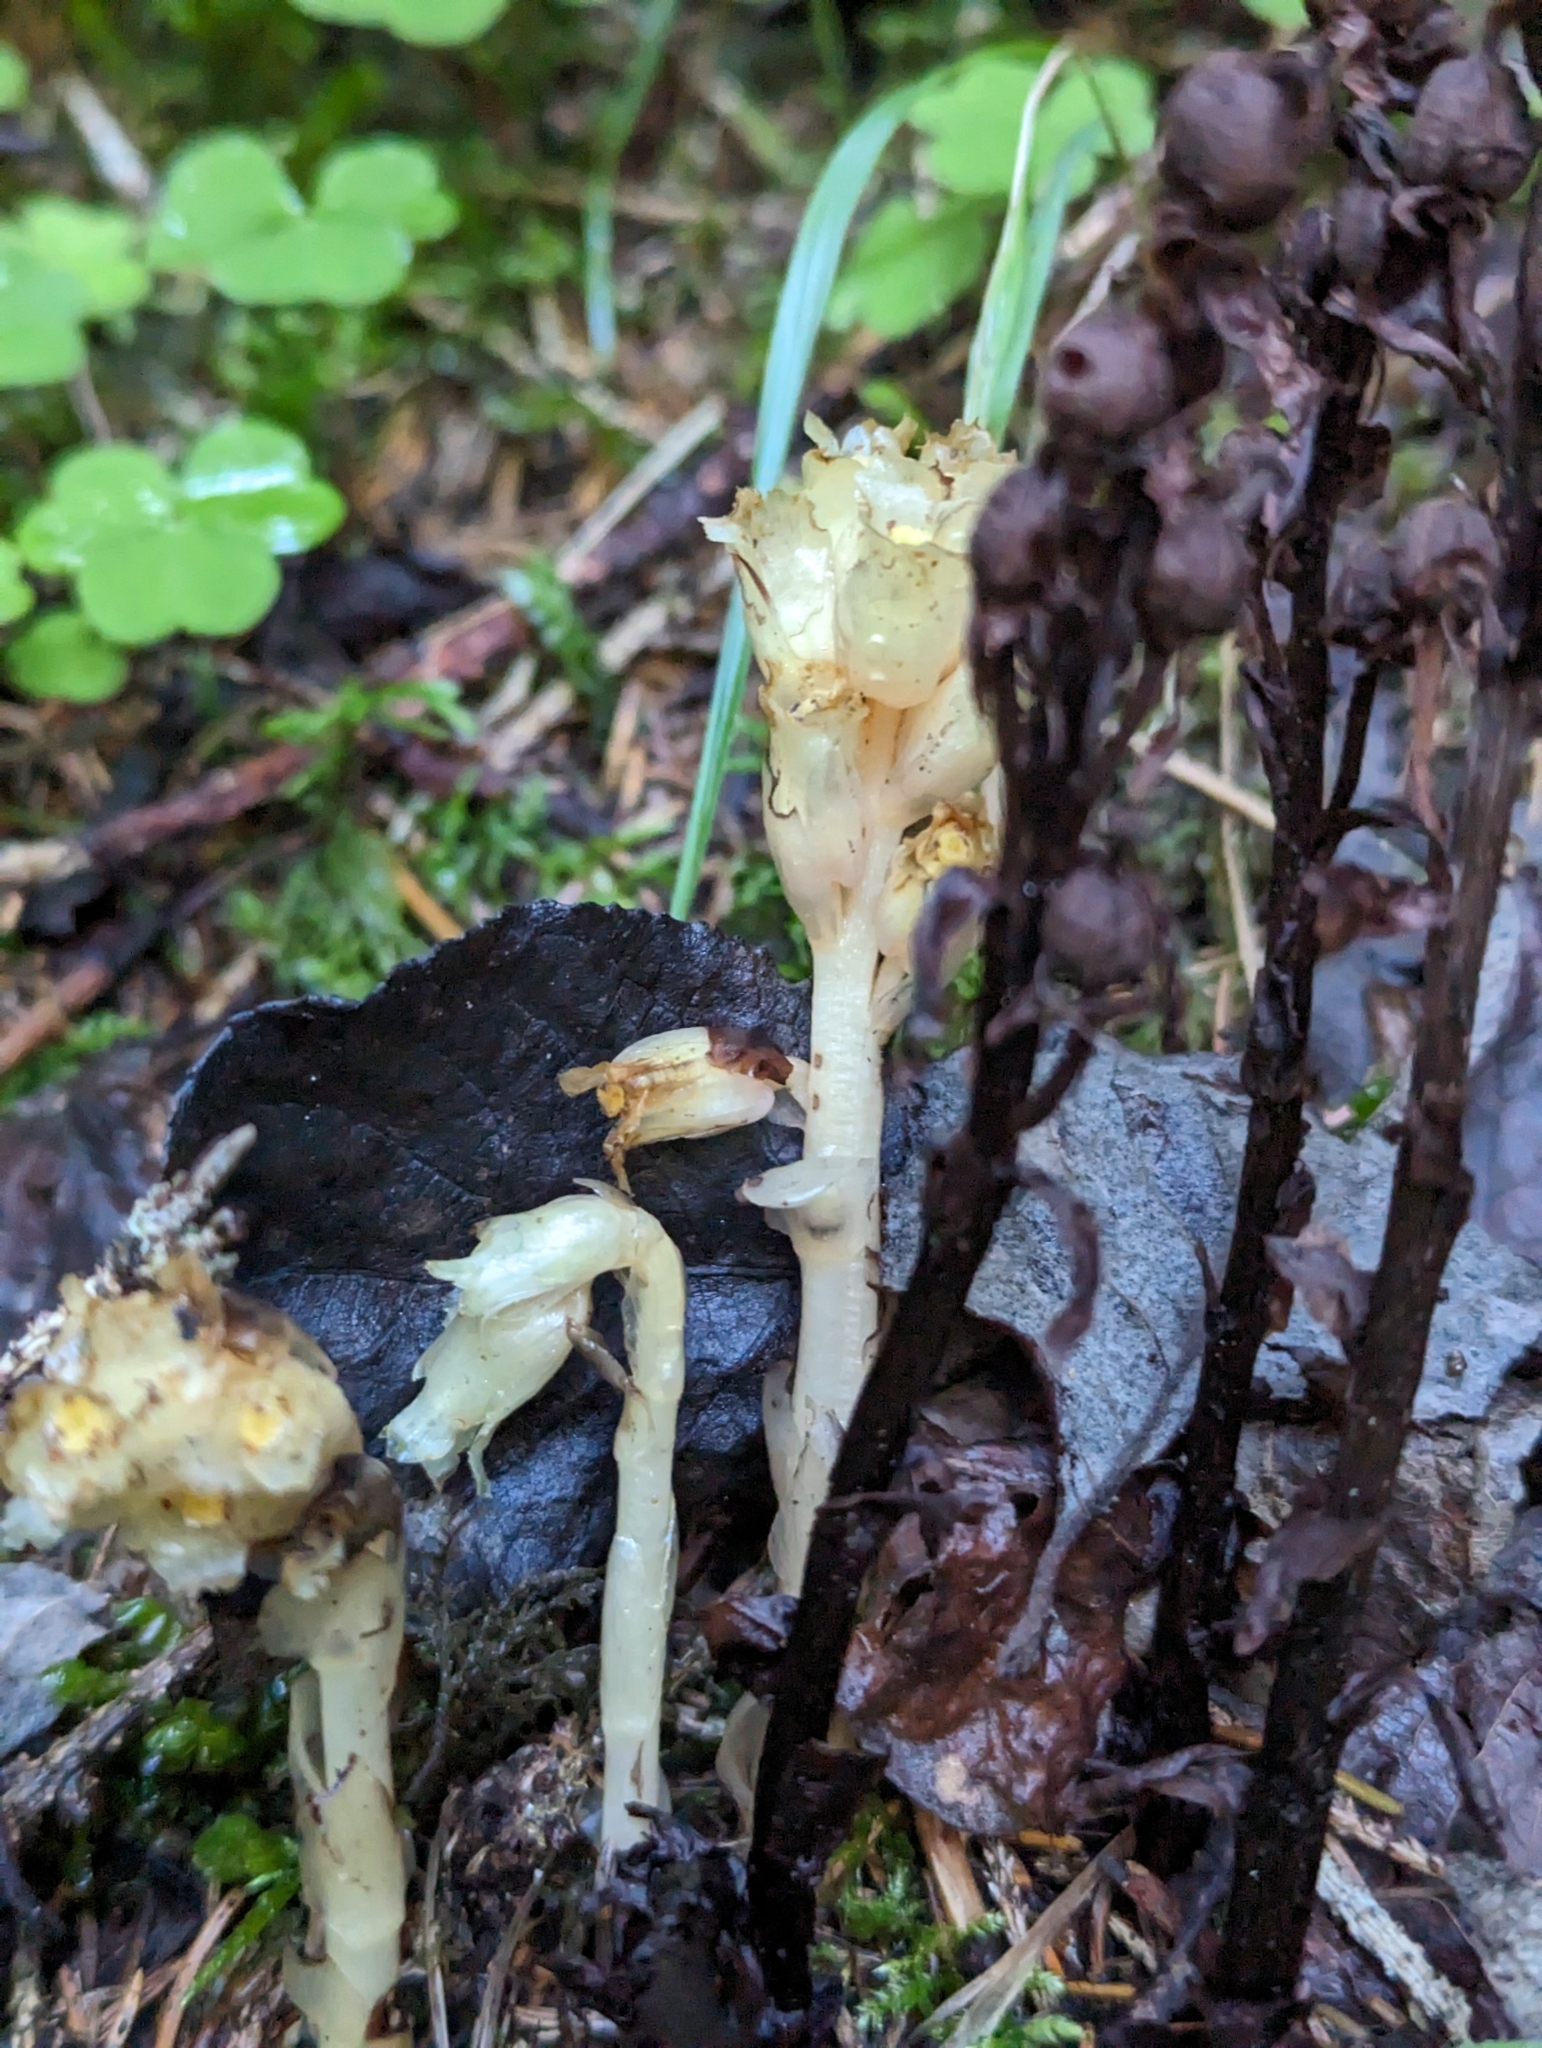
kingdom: Plantae
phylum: Tracheophyta
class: Magnoliopsida
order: Ericales
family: Ericaceae
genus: Hypopitys
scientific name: Hypopitys monotropa
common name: Yellow bird's-nest
